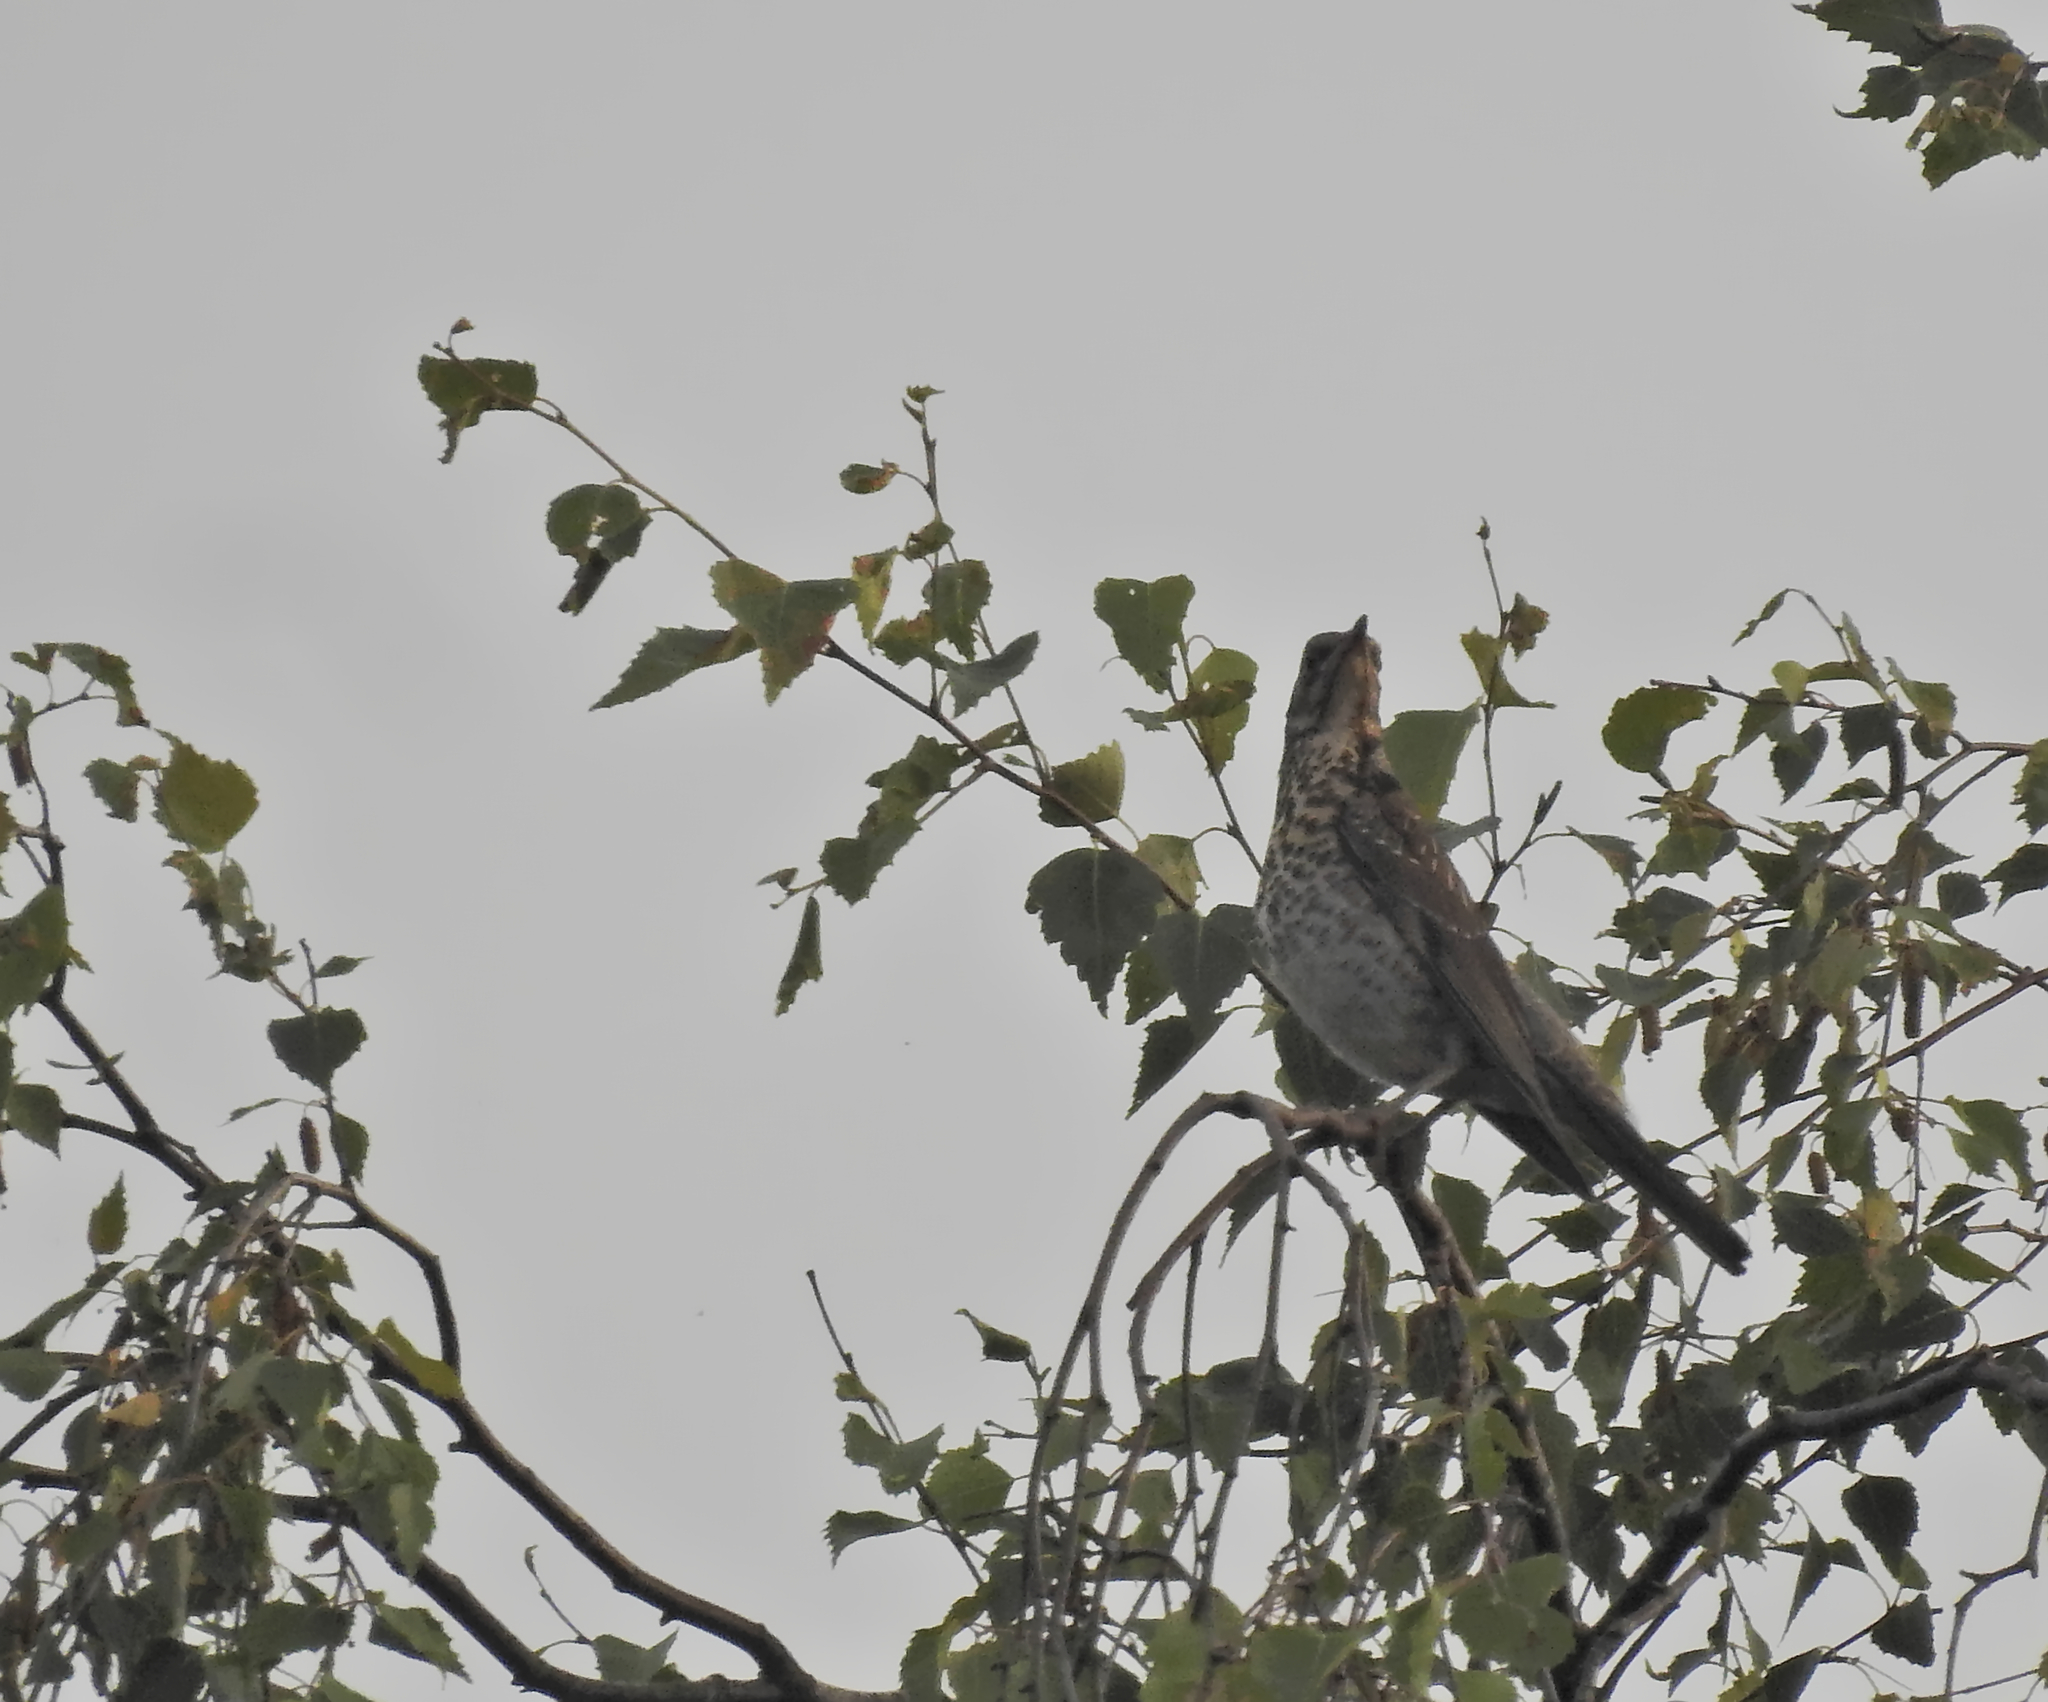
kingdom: Animalia
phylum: Chordata
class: Aves
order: Passeriformes
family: Turdidae
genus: Turdus
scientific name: Turdus viscivorus
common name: Mistle thrush
